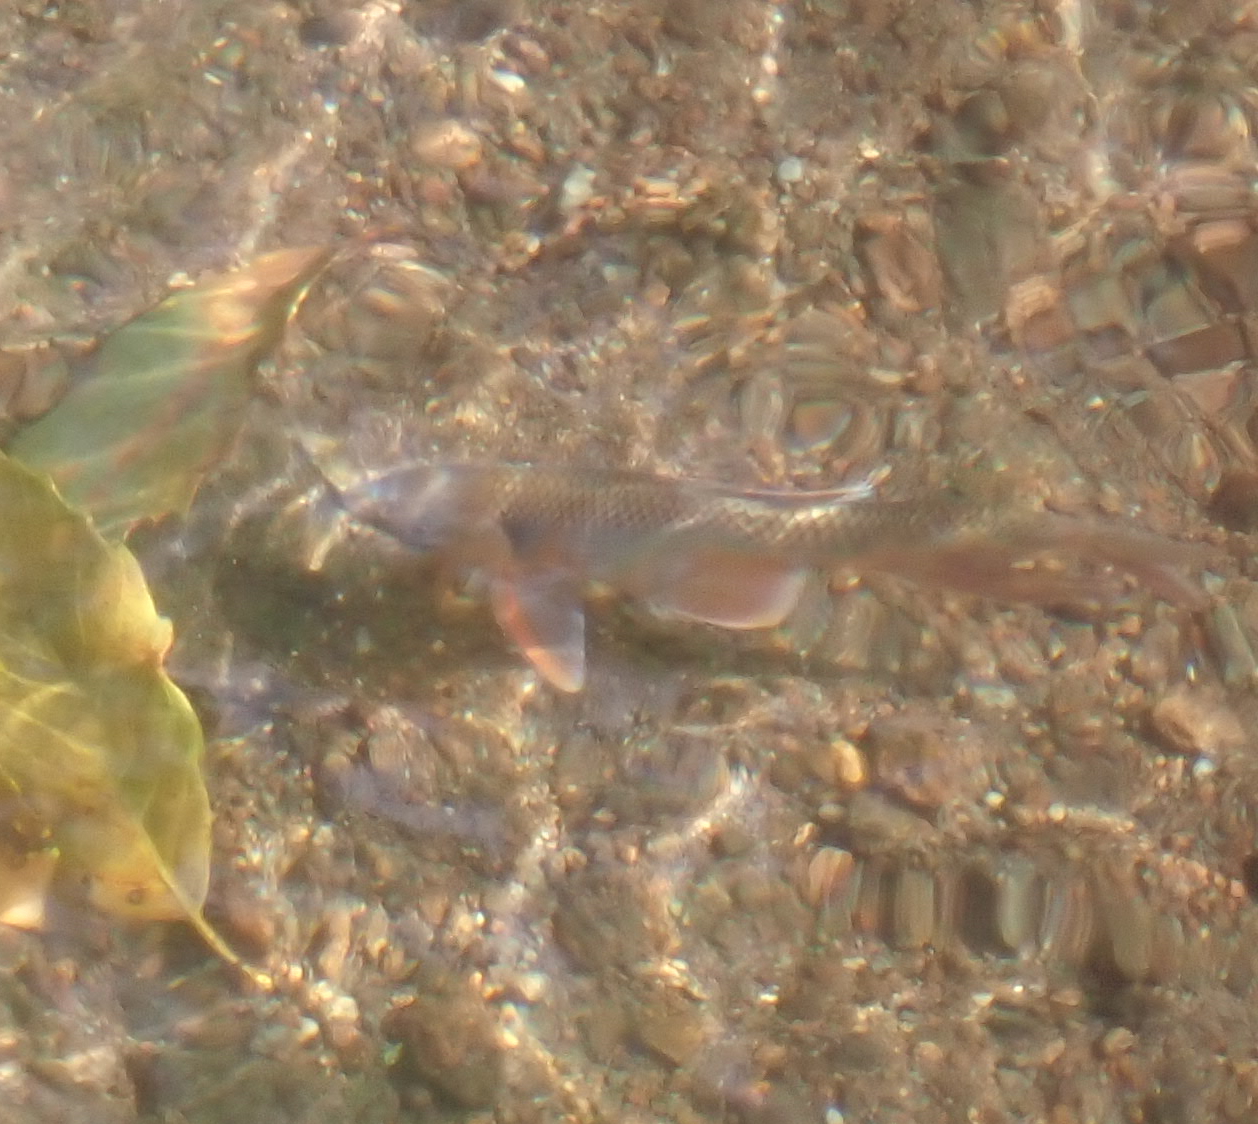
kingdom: Animalia
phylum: Chordata
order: Cypriniformes
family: Cyprinidae
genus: Zacco
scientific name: Zacco platypus
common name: Freshwater minnow
